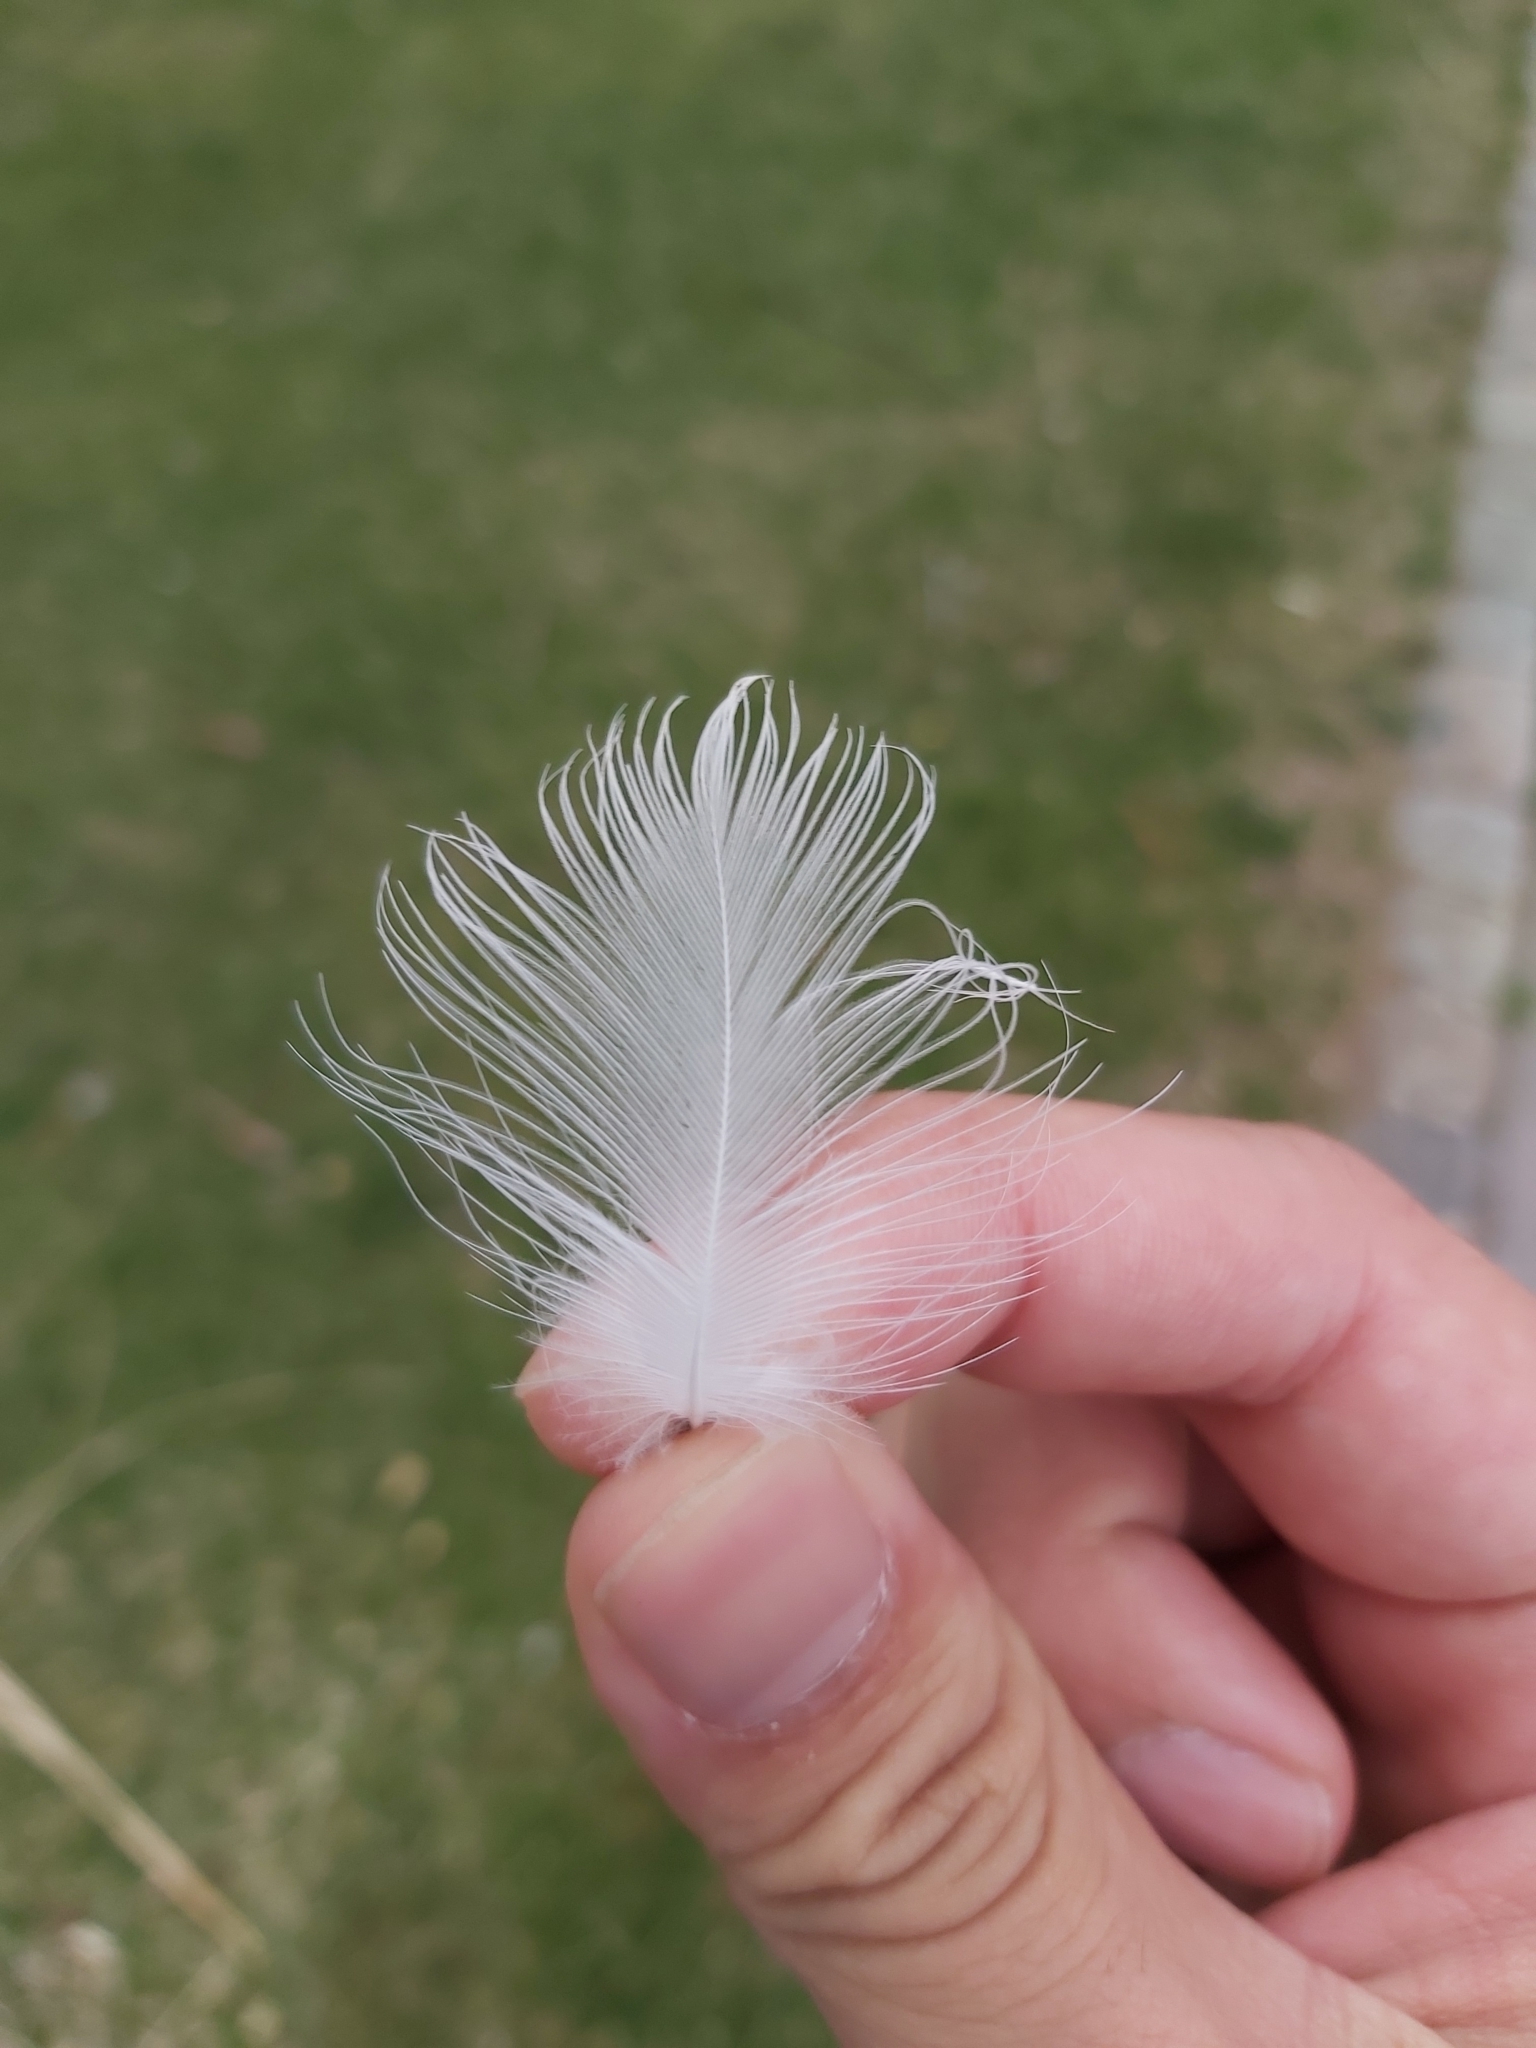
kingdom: Animalia
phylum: Chordata
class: Aves
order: Charadriiformes
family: Laridae
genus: Chroicocephalus
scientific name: Chroicocephalus ridibundus
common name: Black-headed gull
